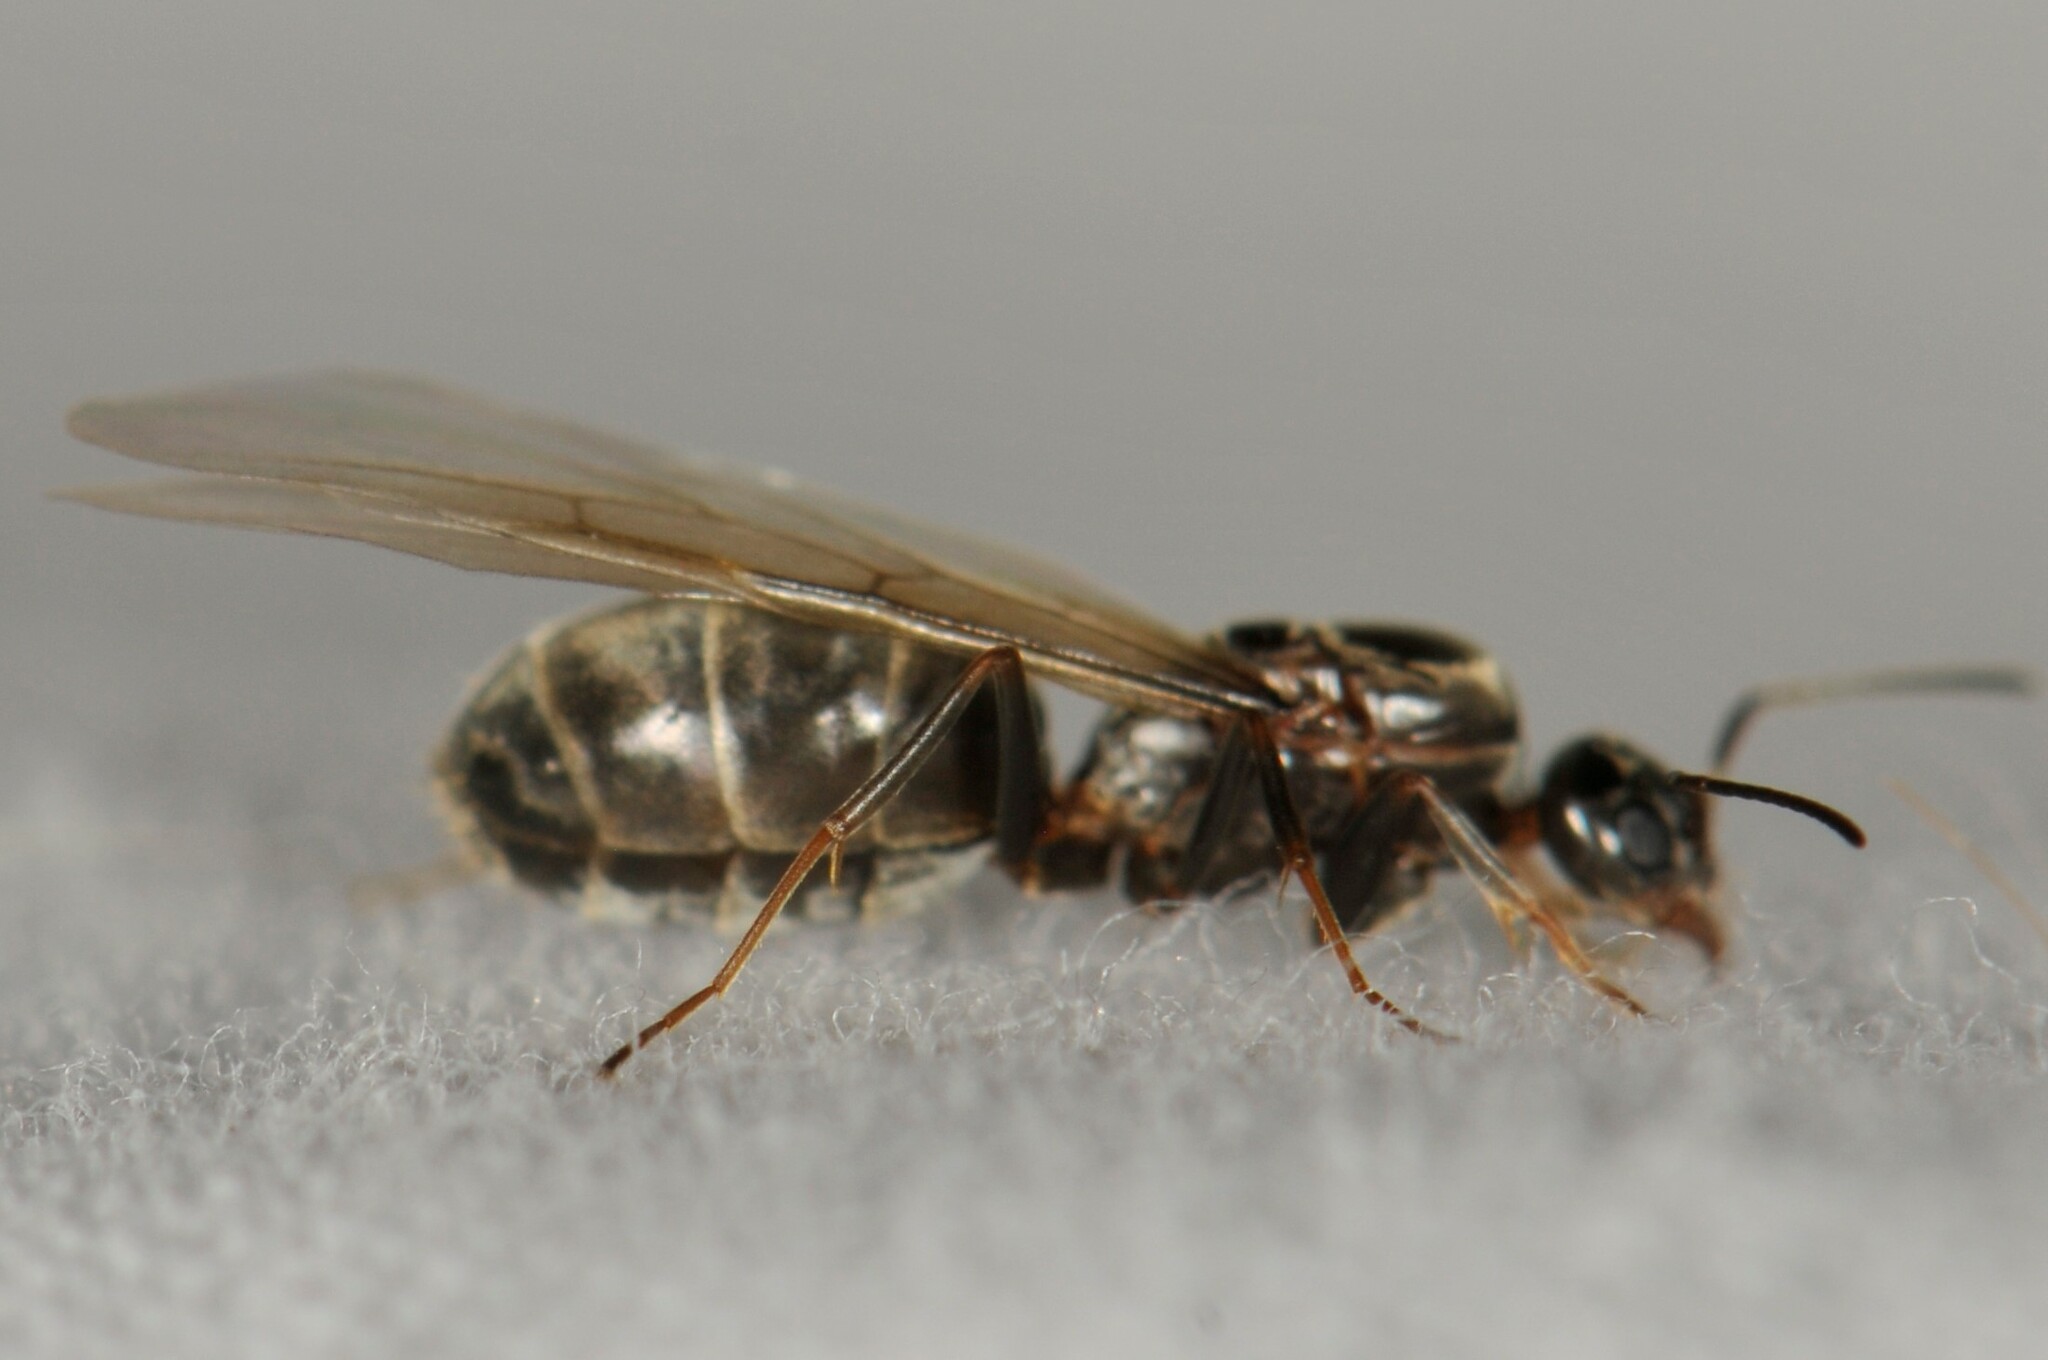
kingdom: Animalia
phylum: Arthropoda
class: Insecta
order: Hymenoptera
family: Formicidae
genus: Dorymyrmex
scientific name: Dorymyrmex
